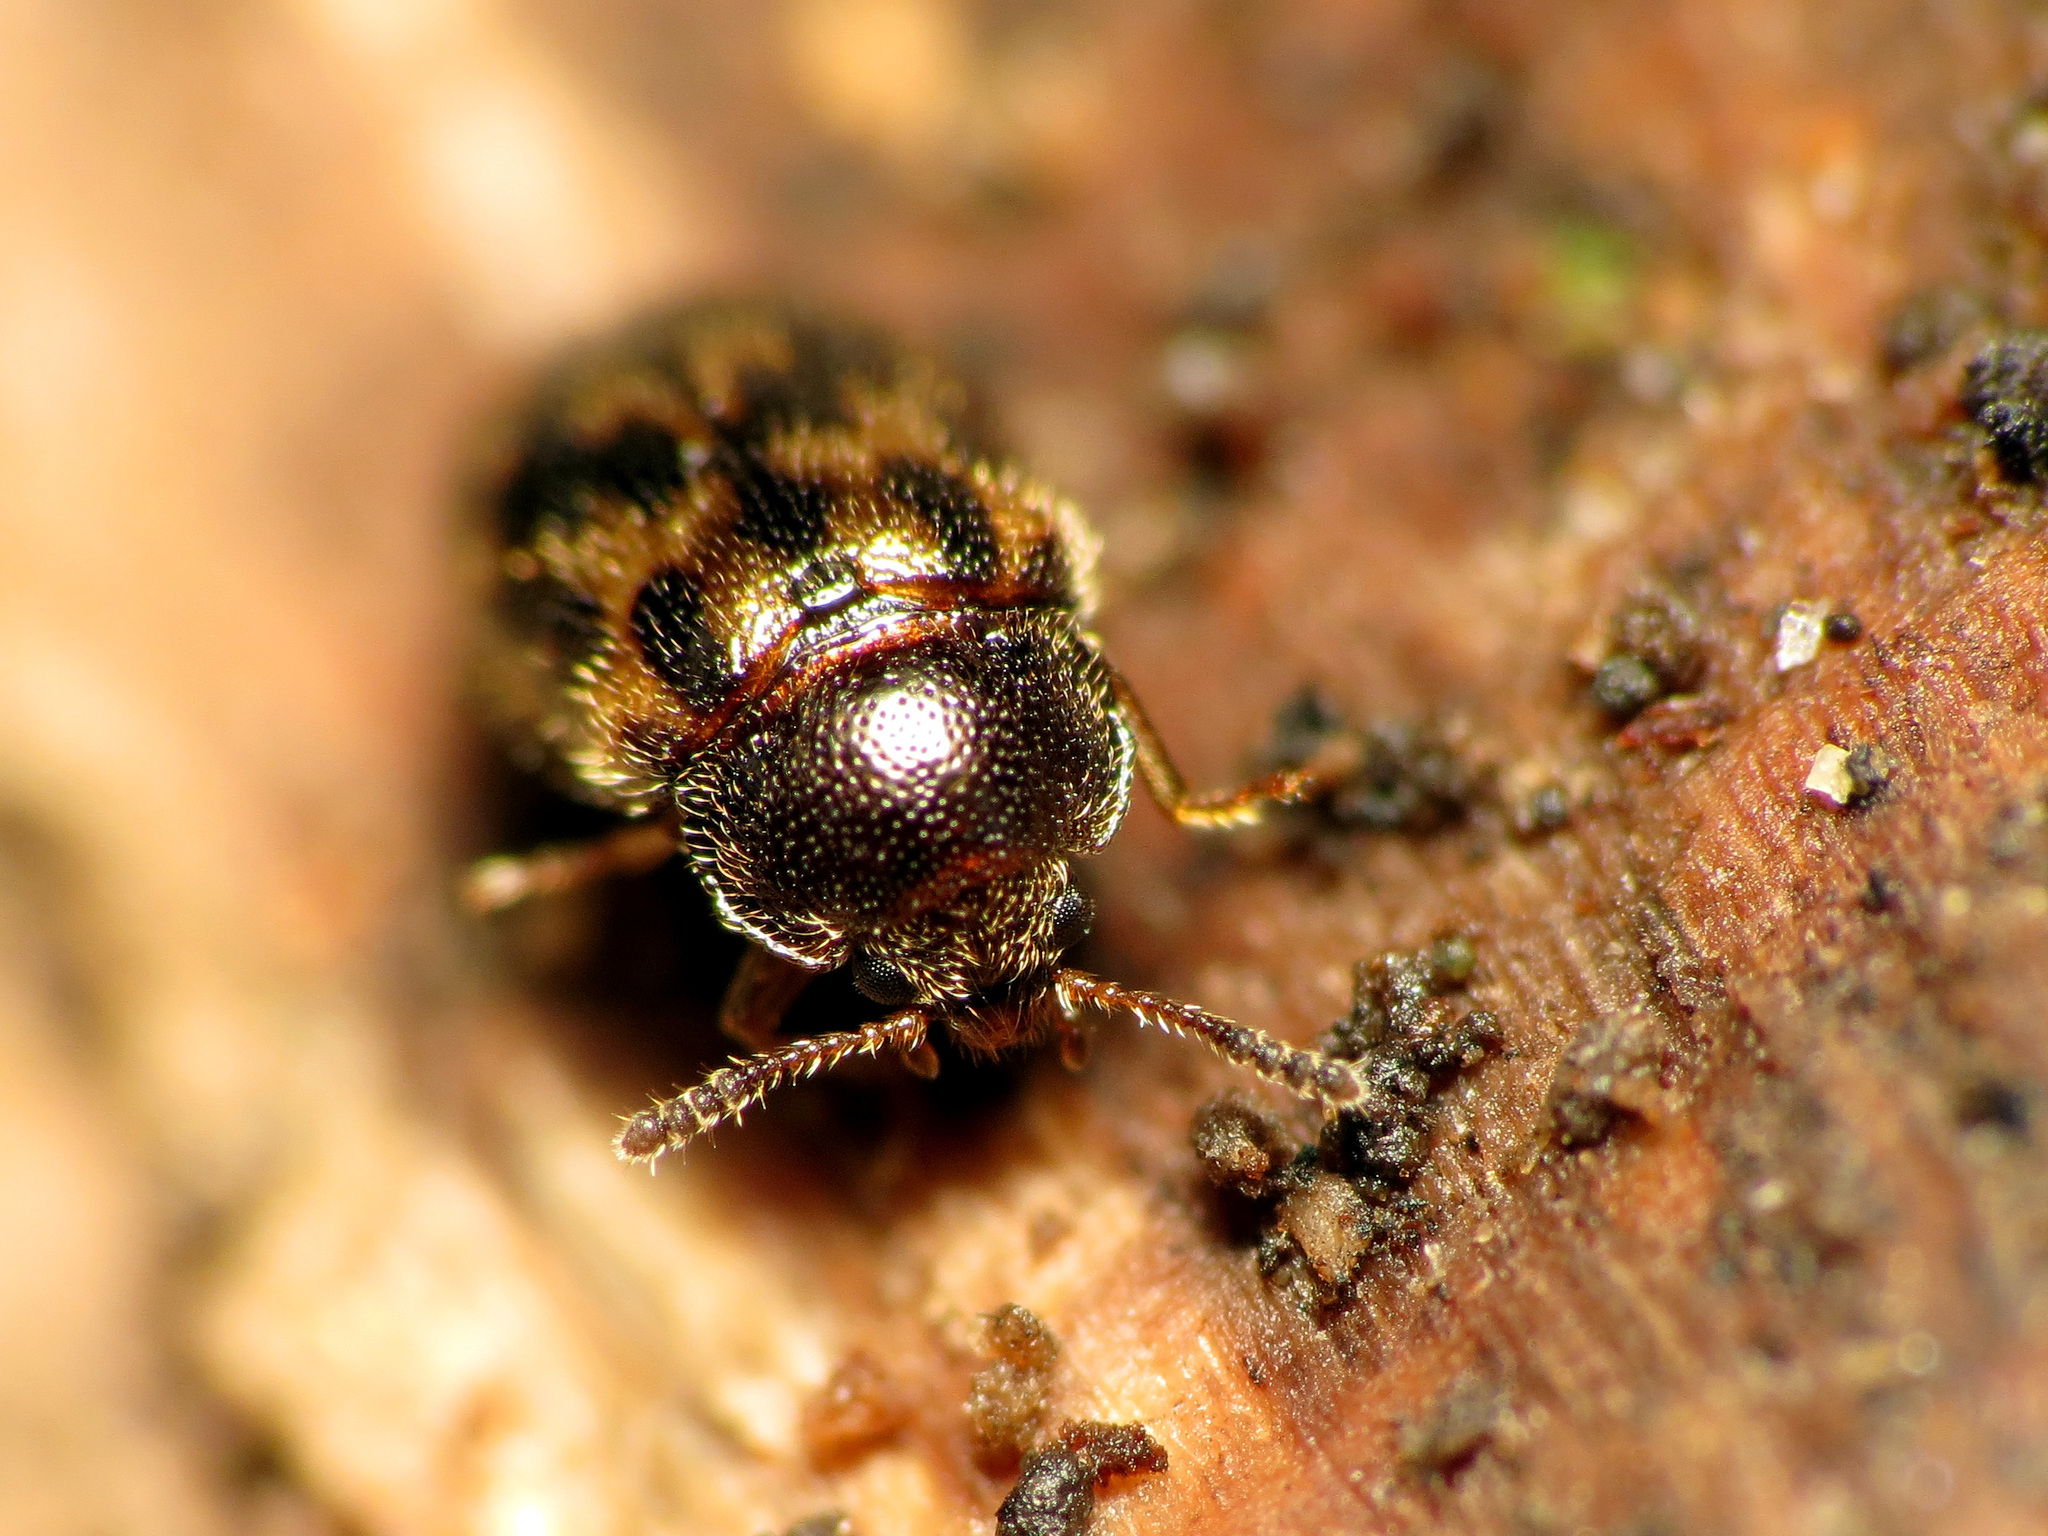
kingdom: Animalia
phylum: Arthropoda
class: Insecta
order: Coleoptera
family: Tetratomidae
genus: Tetratoma
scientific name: Tetratoma tesselata
